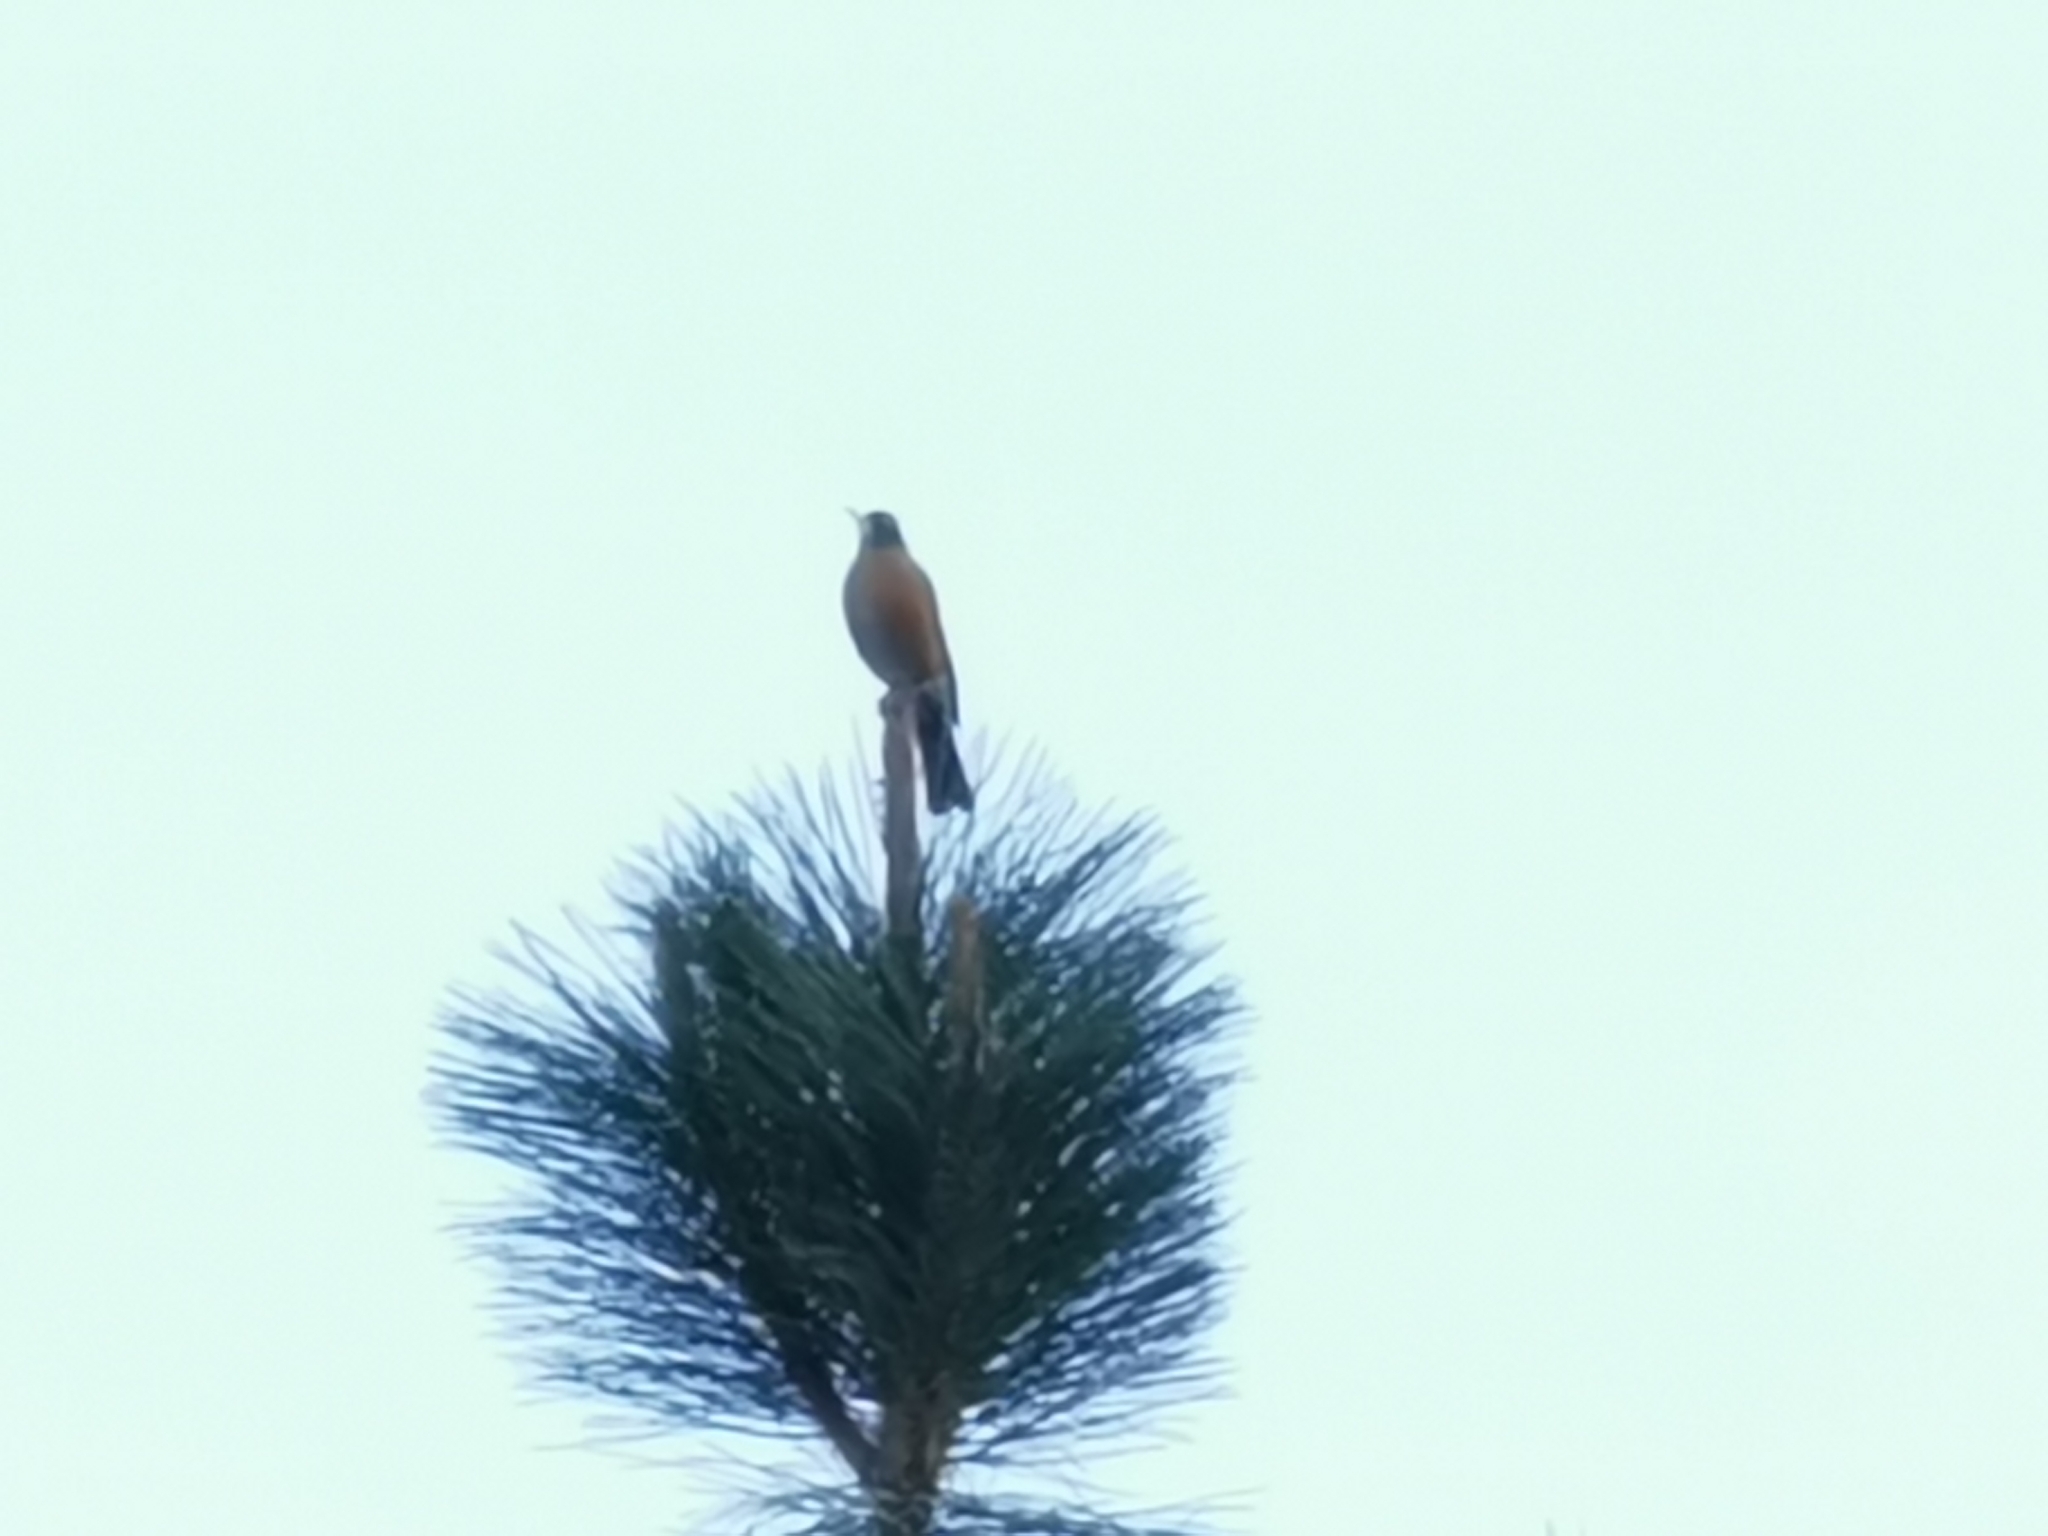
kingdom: Animalia
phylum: Chordata
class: Aves
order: Passeriformes
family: Turdidae
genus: Turdus
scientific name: Turdus migratorius
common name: American robin
